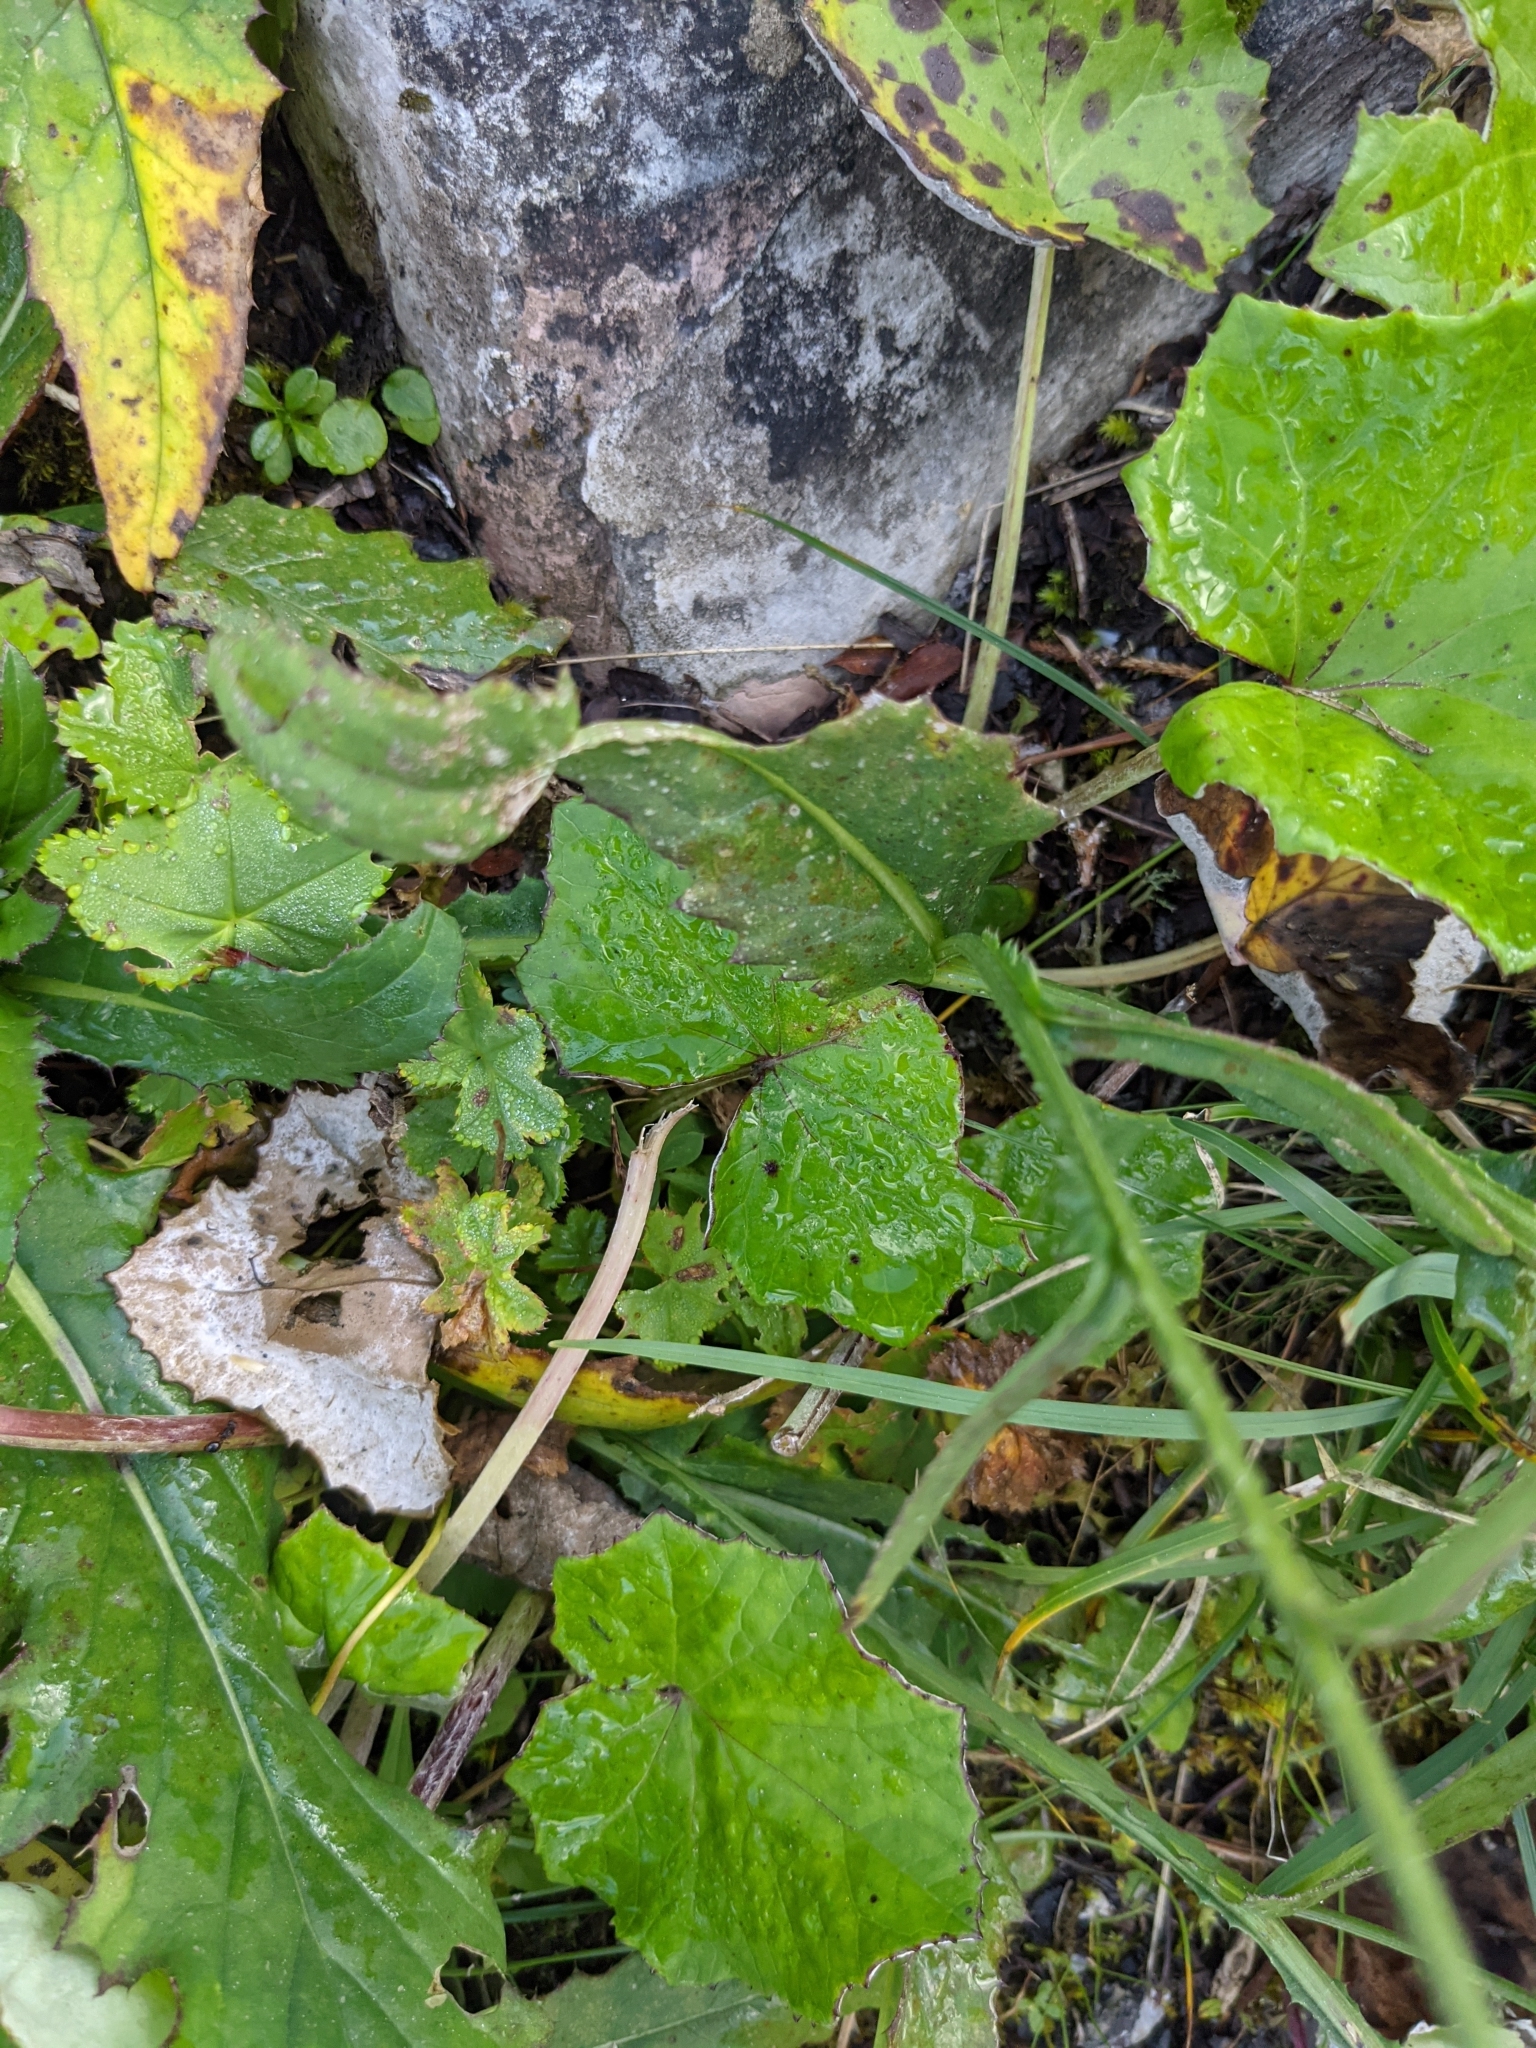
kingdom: Plantae
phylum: Tracheophyta
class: Magnoliopsida
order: Asterales
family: Asteraceae
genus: Carduus
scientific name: Carduus defloratus
